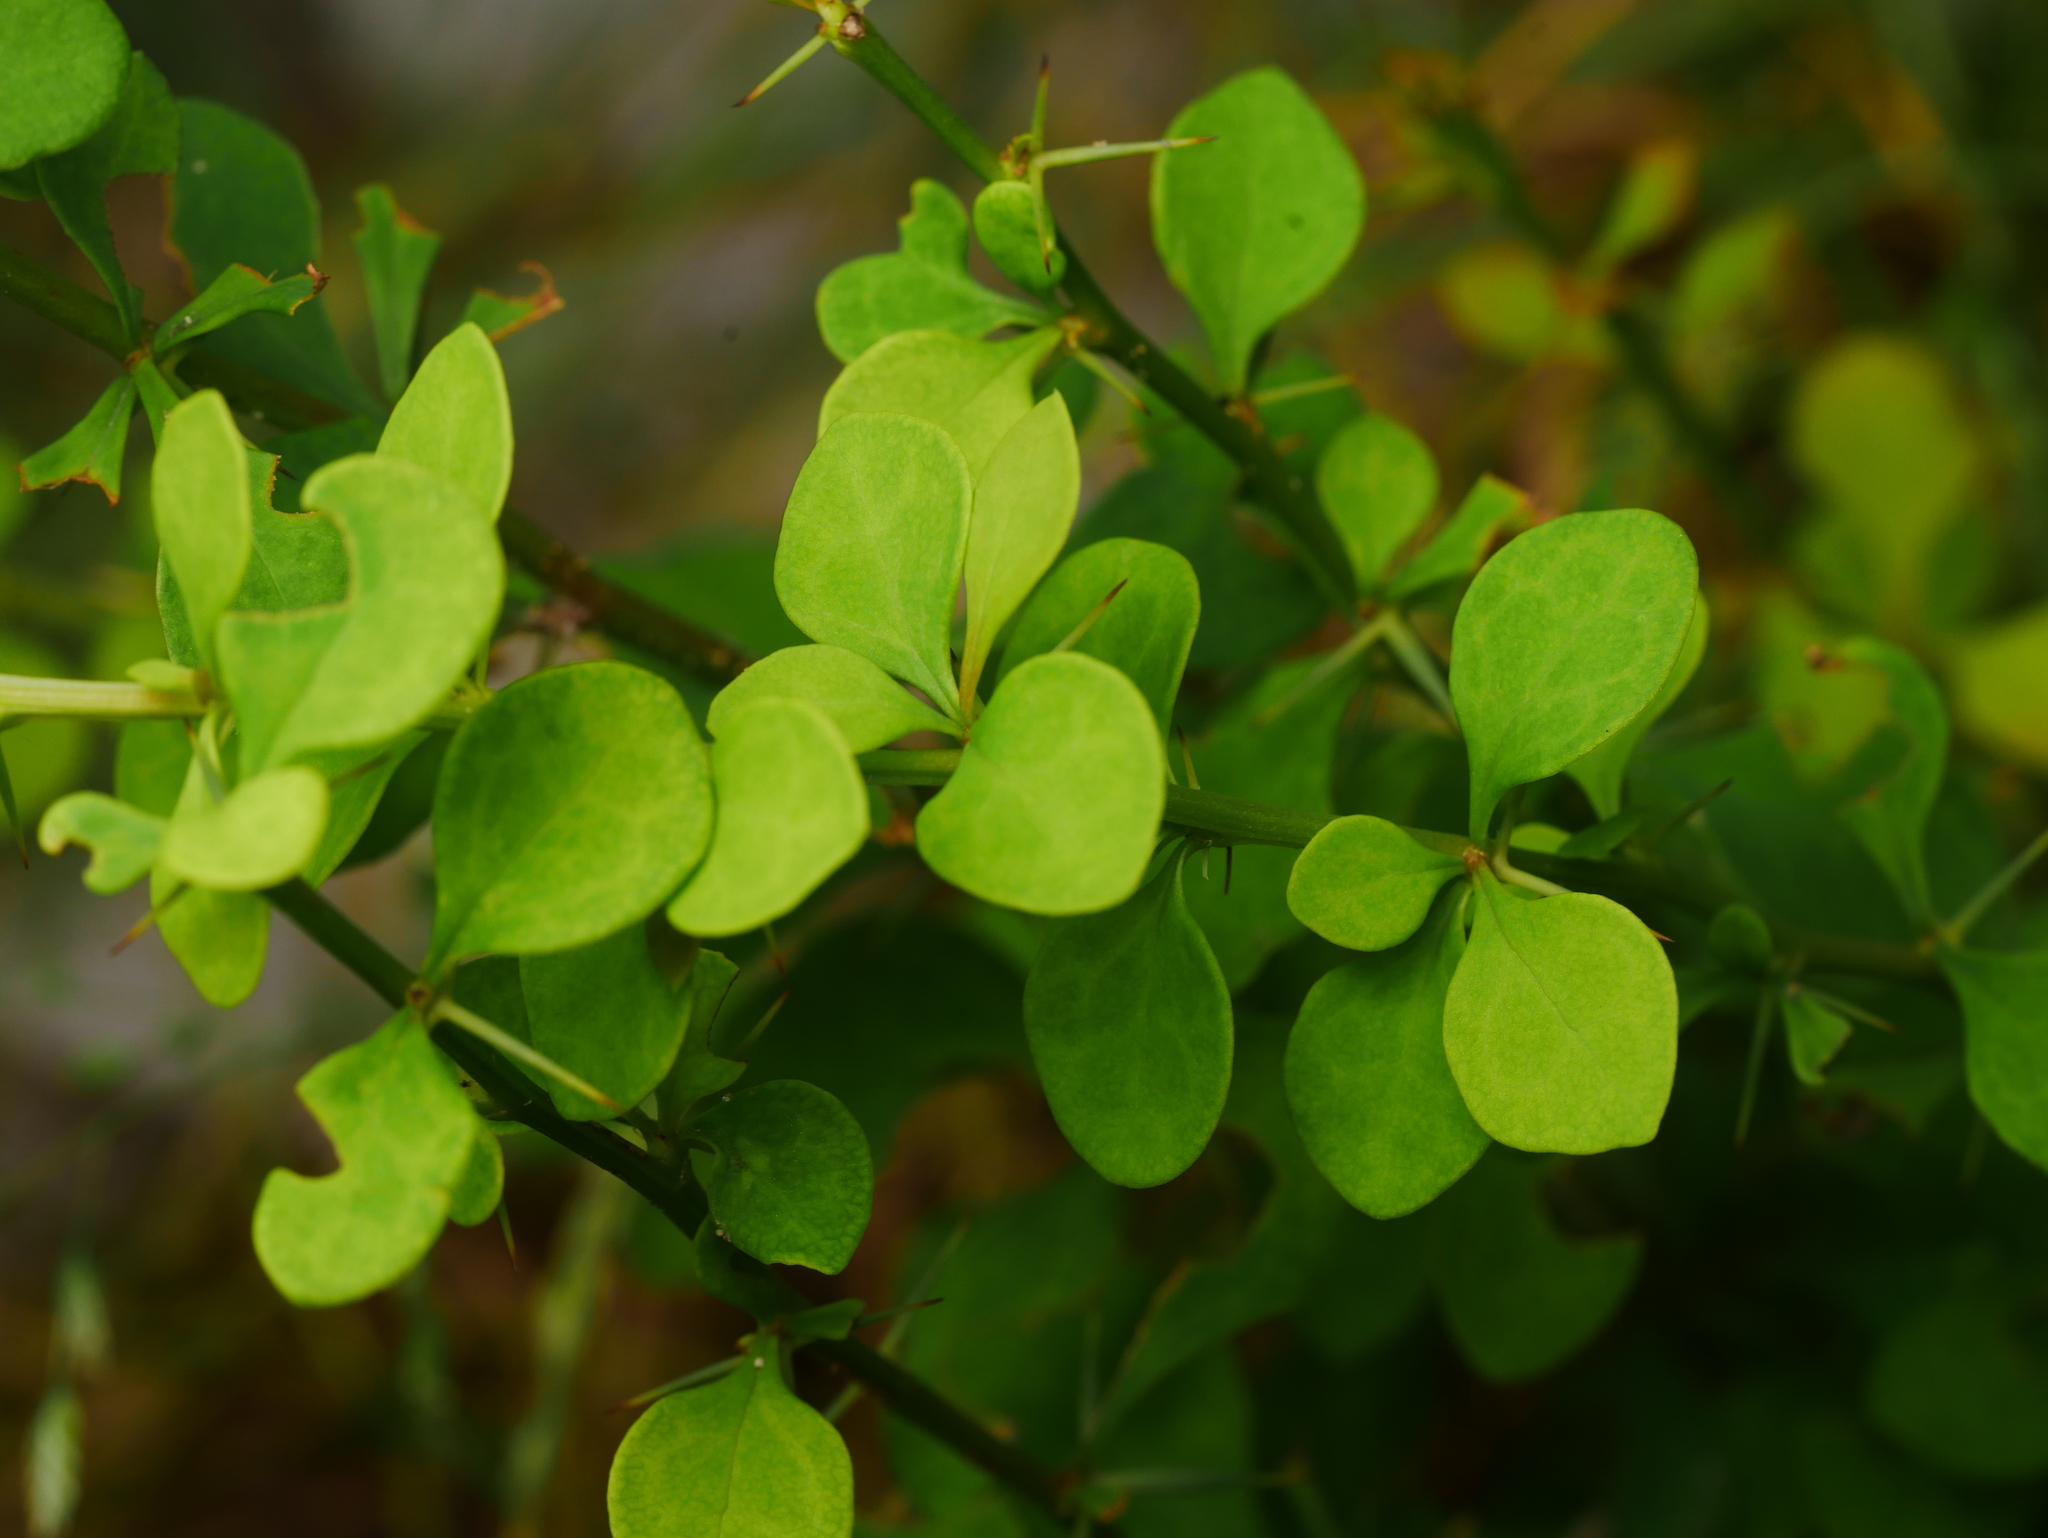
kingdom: Plantae
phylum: Tracheophyta
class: Magnoliopsida
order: Ranunculales
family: Berberidaceae
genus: Berberis
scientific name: Berberis thunbergii
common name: Japanese barberry
